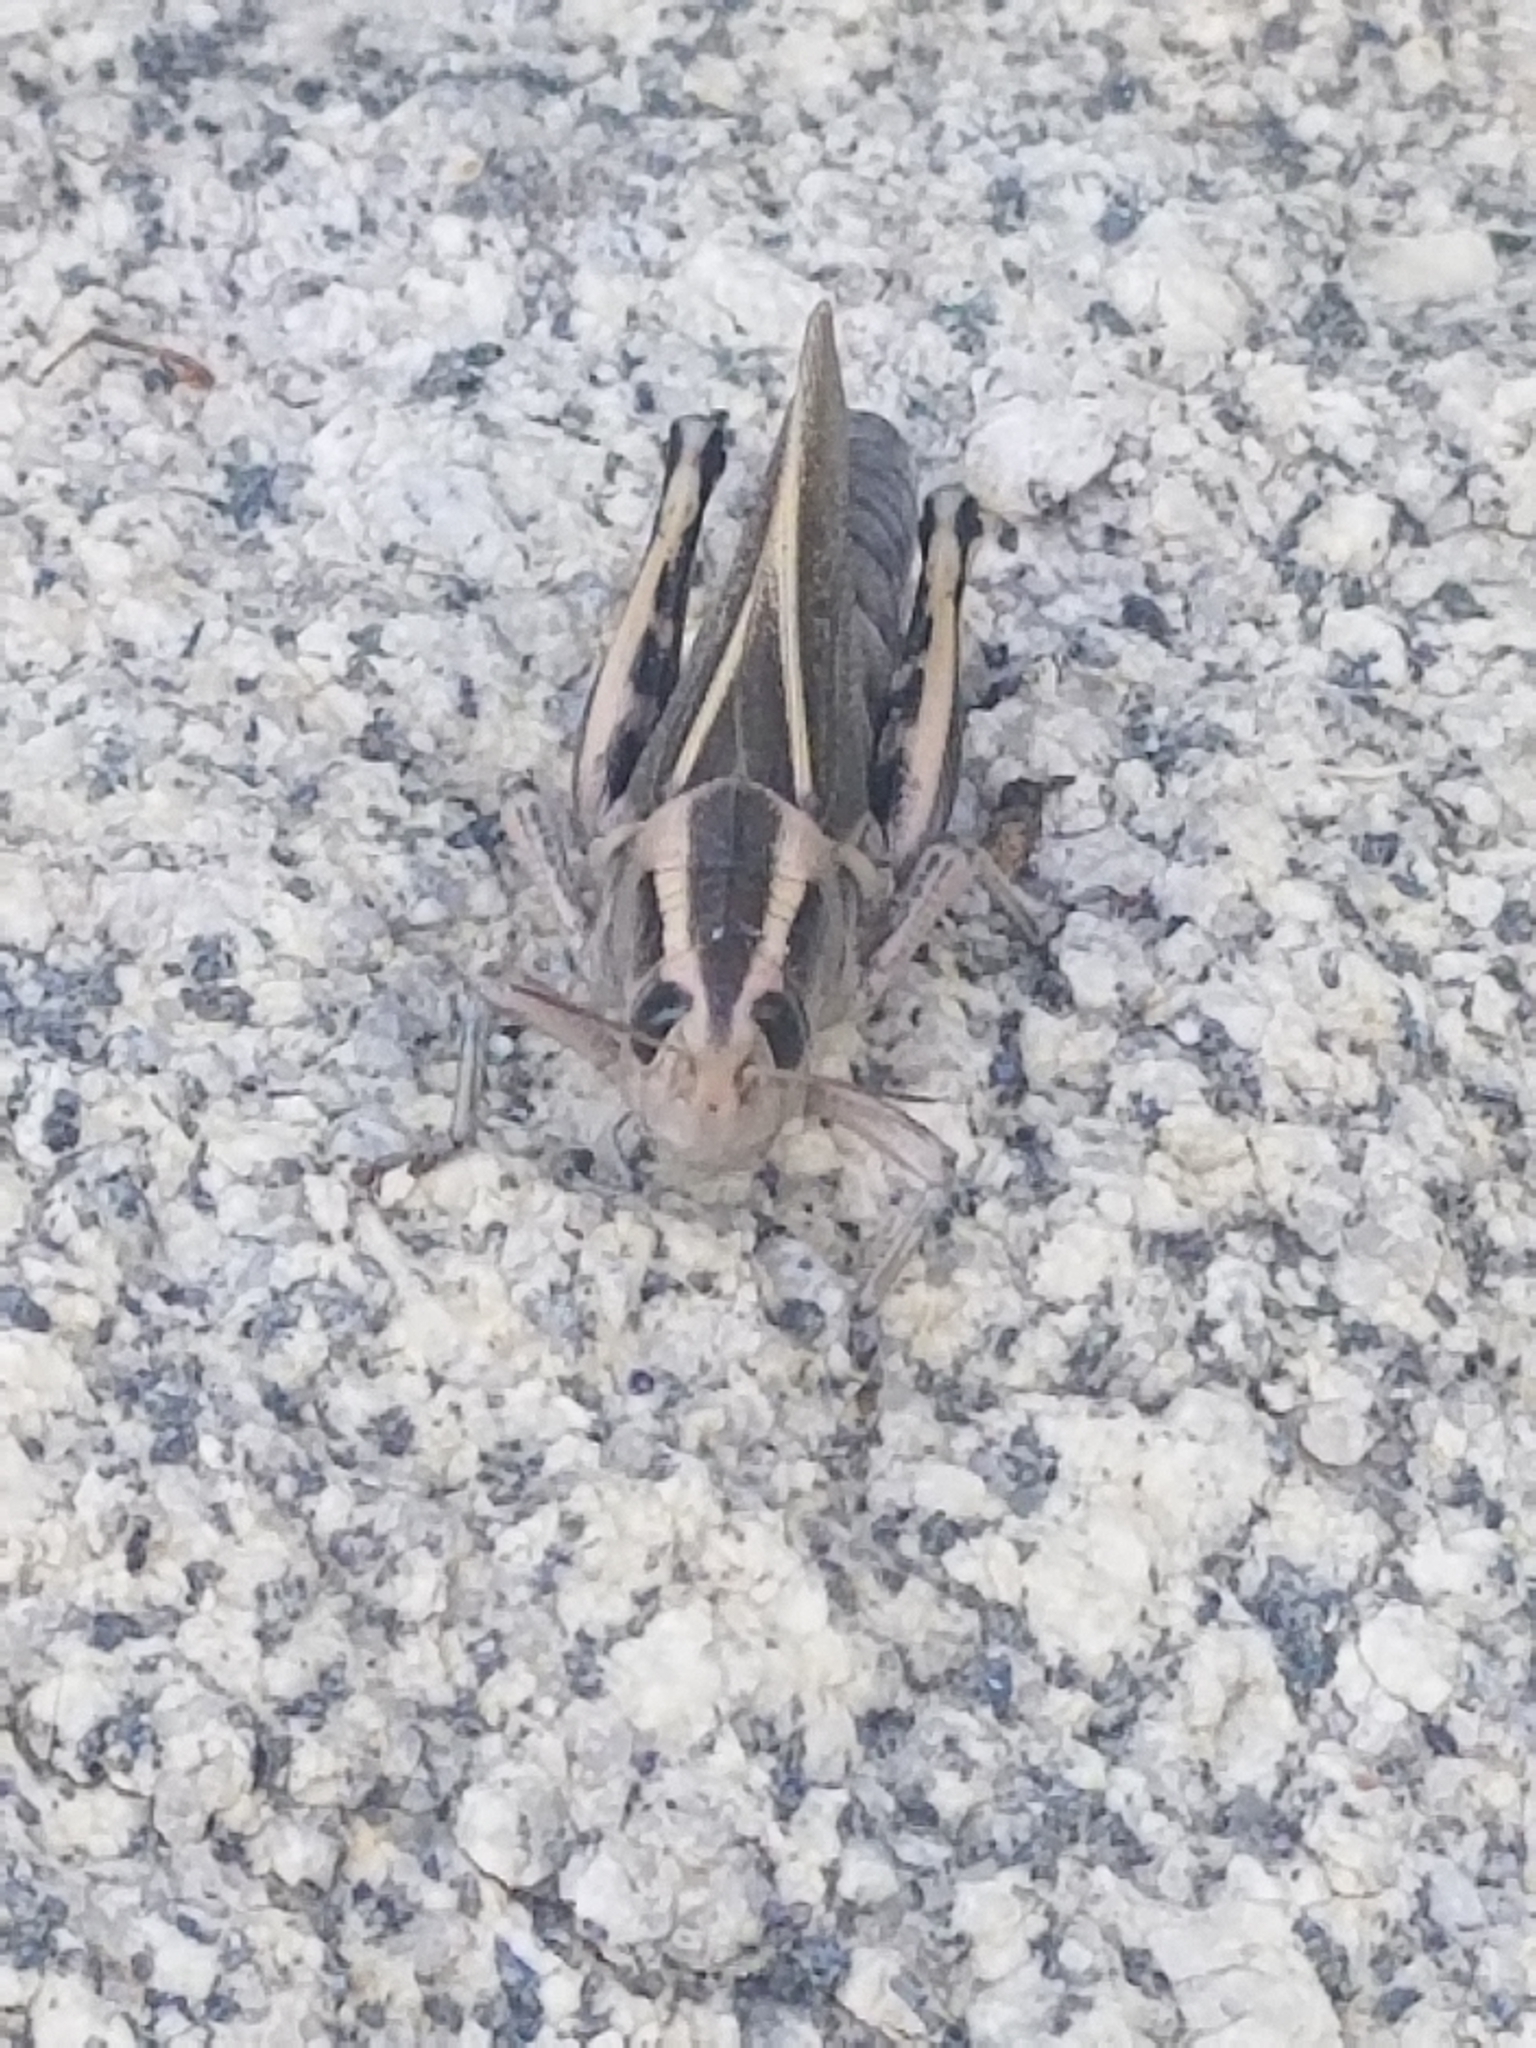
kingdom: Animalia
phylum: Arthropoda
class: Insecta
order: Orthoptera
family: Acrididae
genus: Melanoplus
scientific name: Melanoplus bivittatus
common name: Two-striped grasshopper
